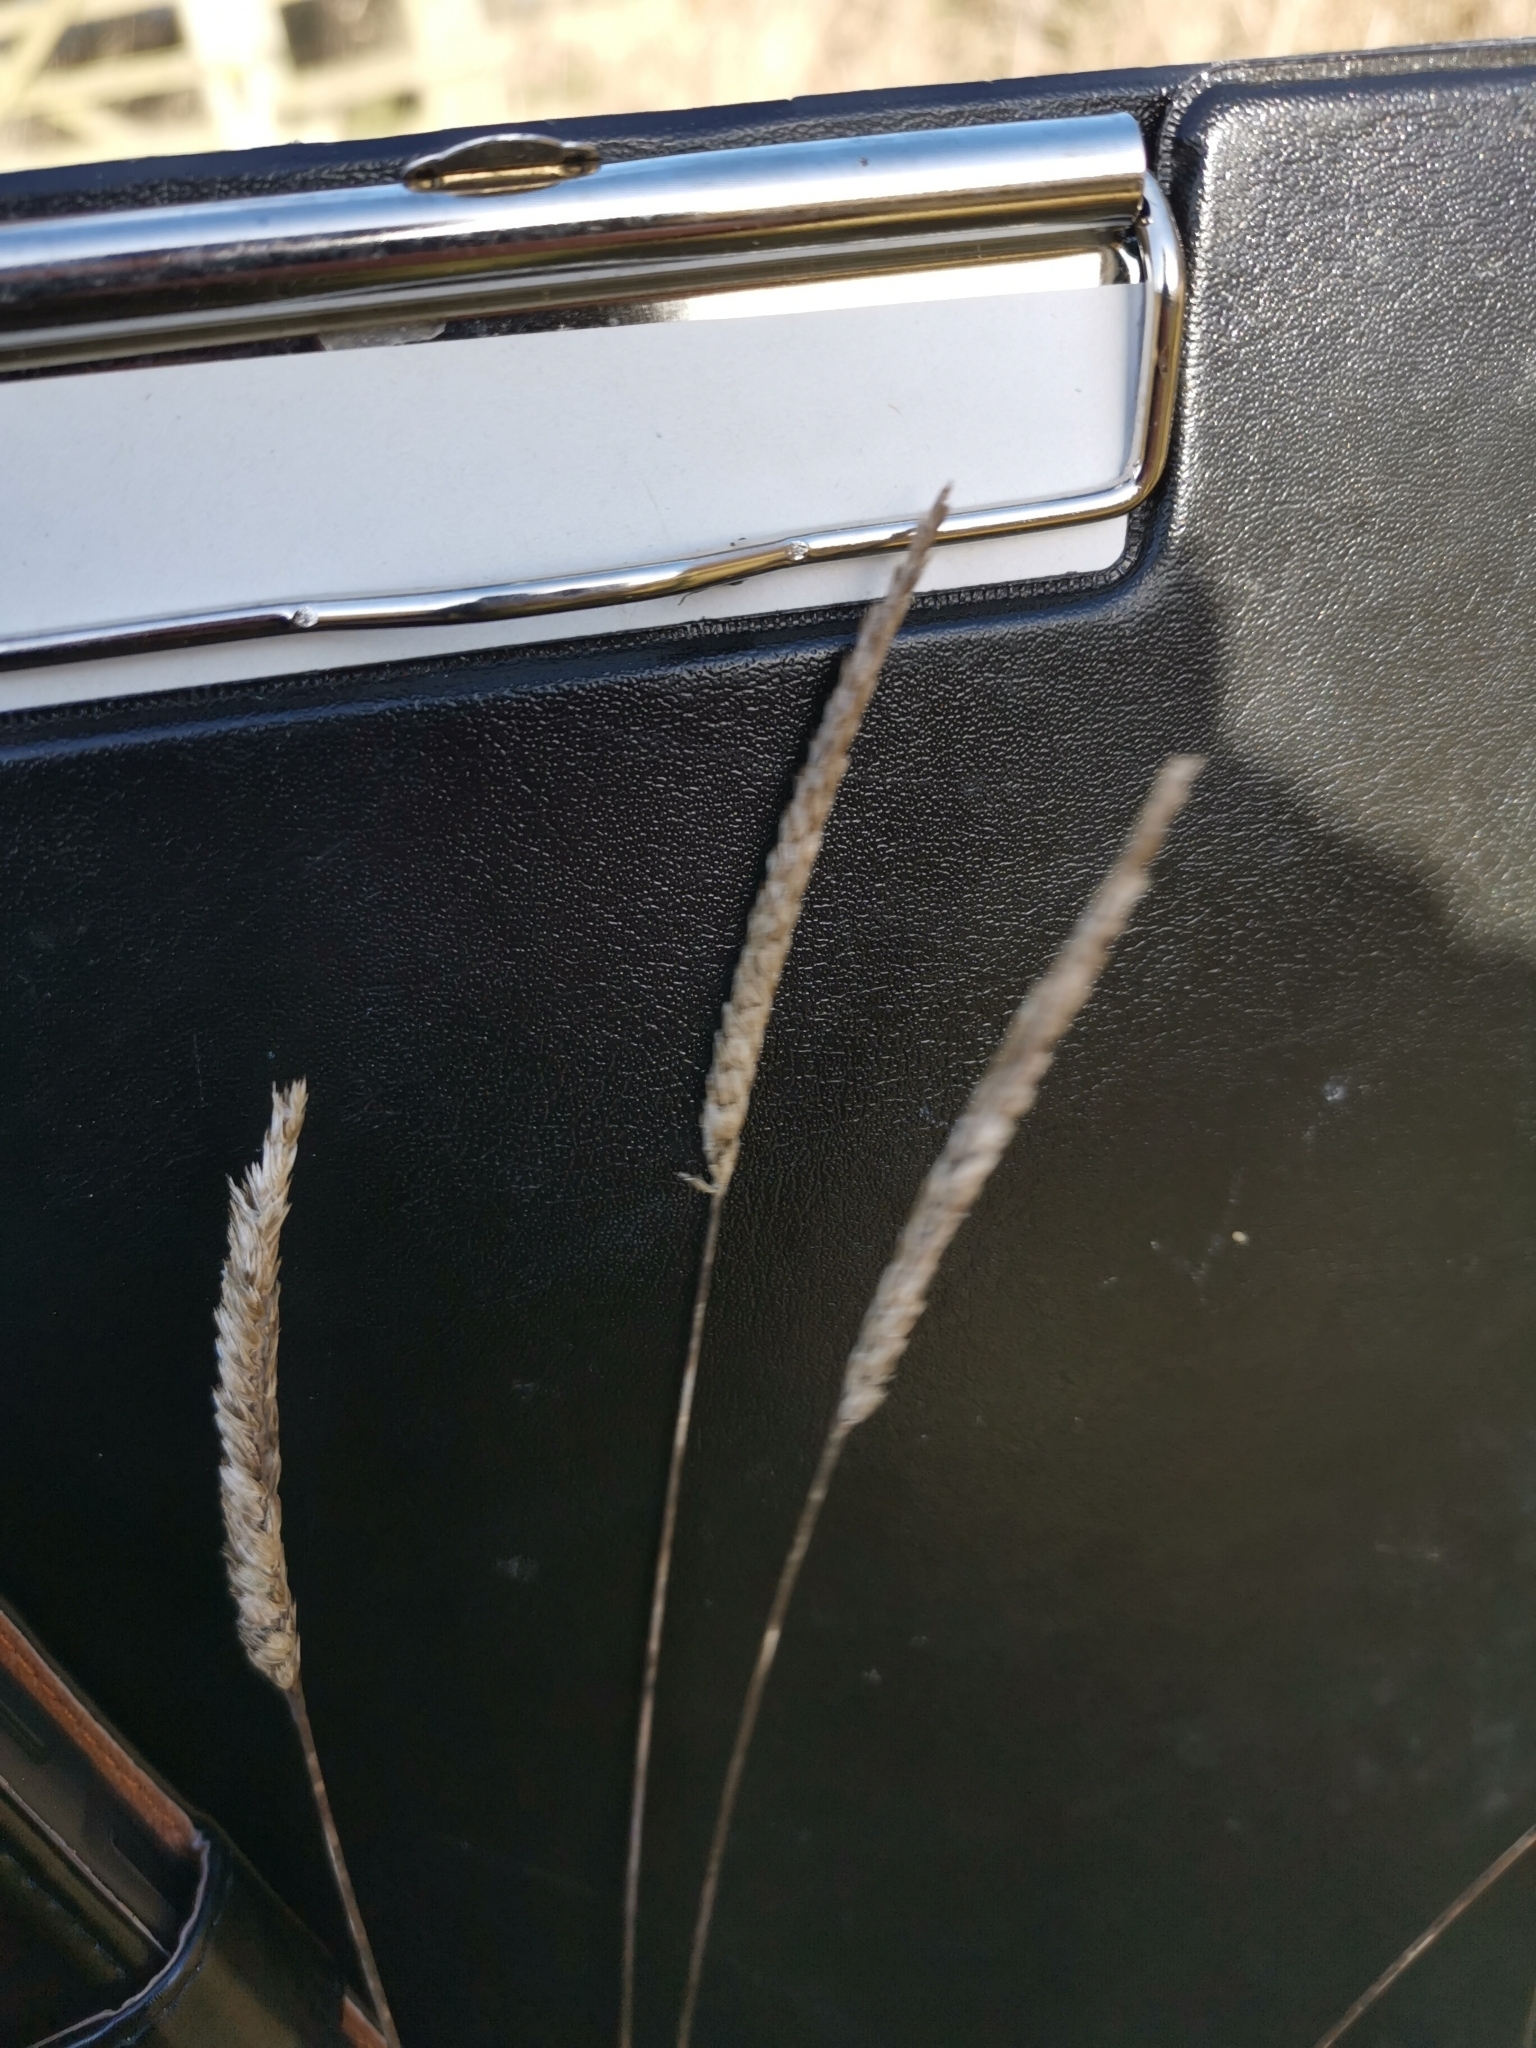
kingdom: Plantae
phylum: Tracheophyta
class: Liliopsida
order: Poales
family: Poaceae
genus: Cynosurus
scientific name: Cynosurus cristatus
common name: Crested dog's-tail
